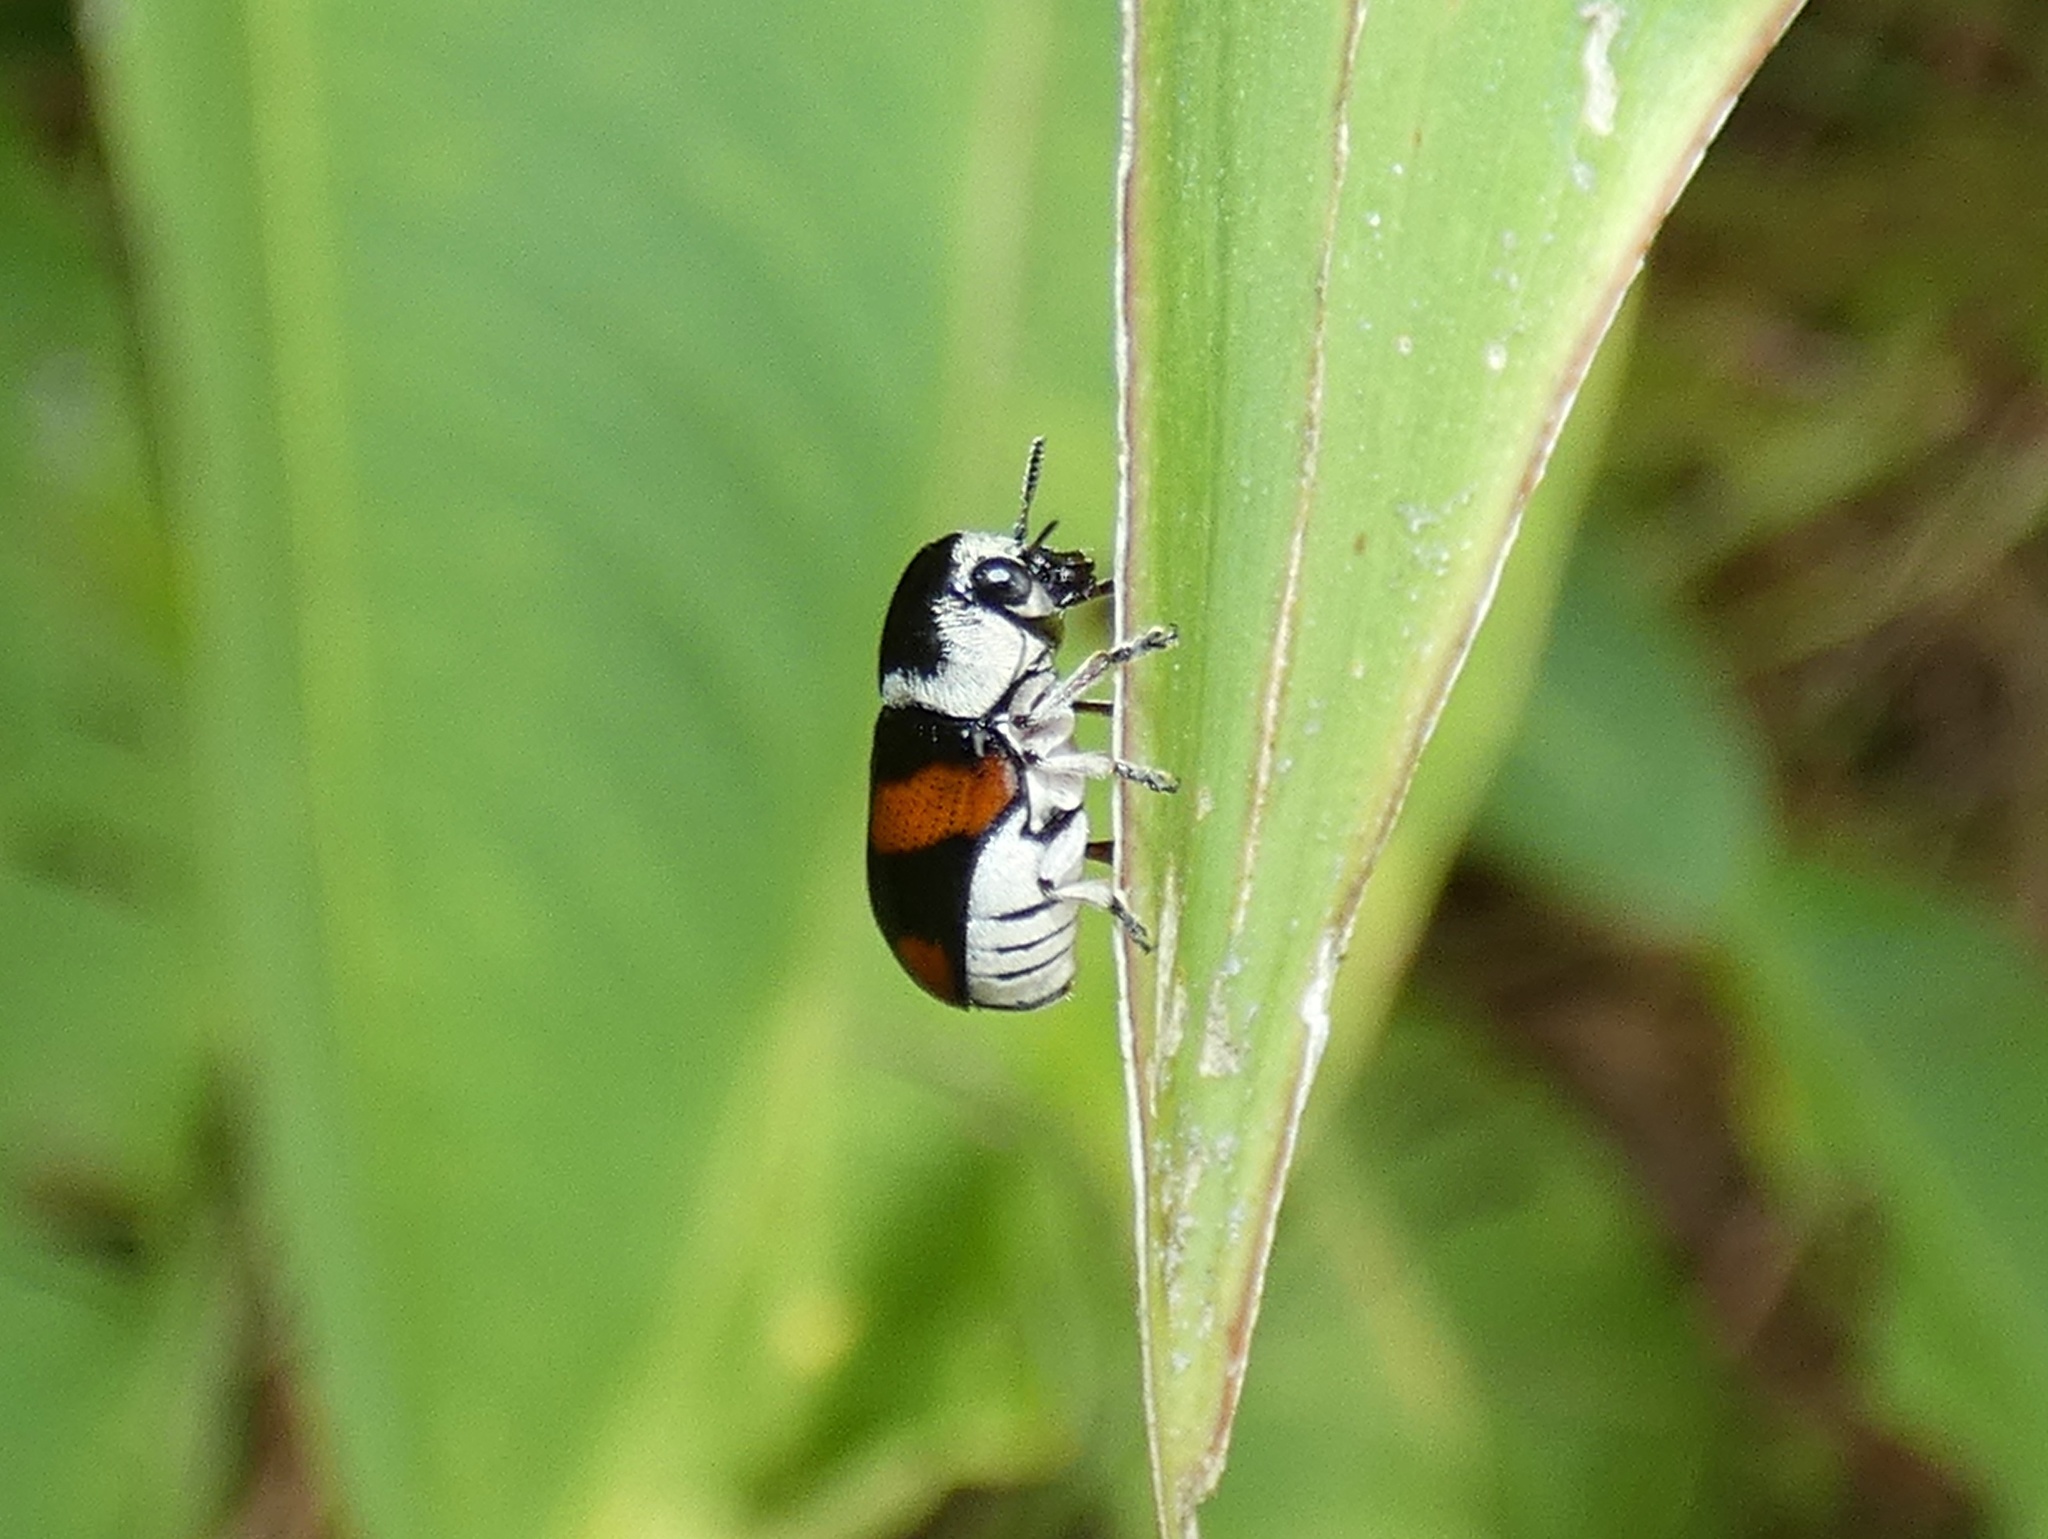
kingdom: Animalia
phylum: Arthropoda
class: Insecta
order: Coleoptera
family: Chrysomelidae
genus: Euryscopa
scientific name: Euryscopa cingulata
